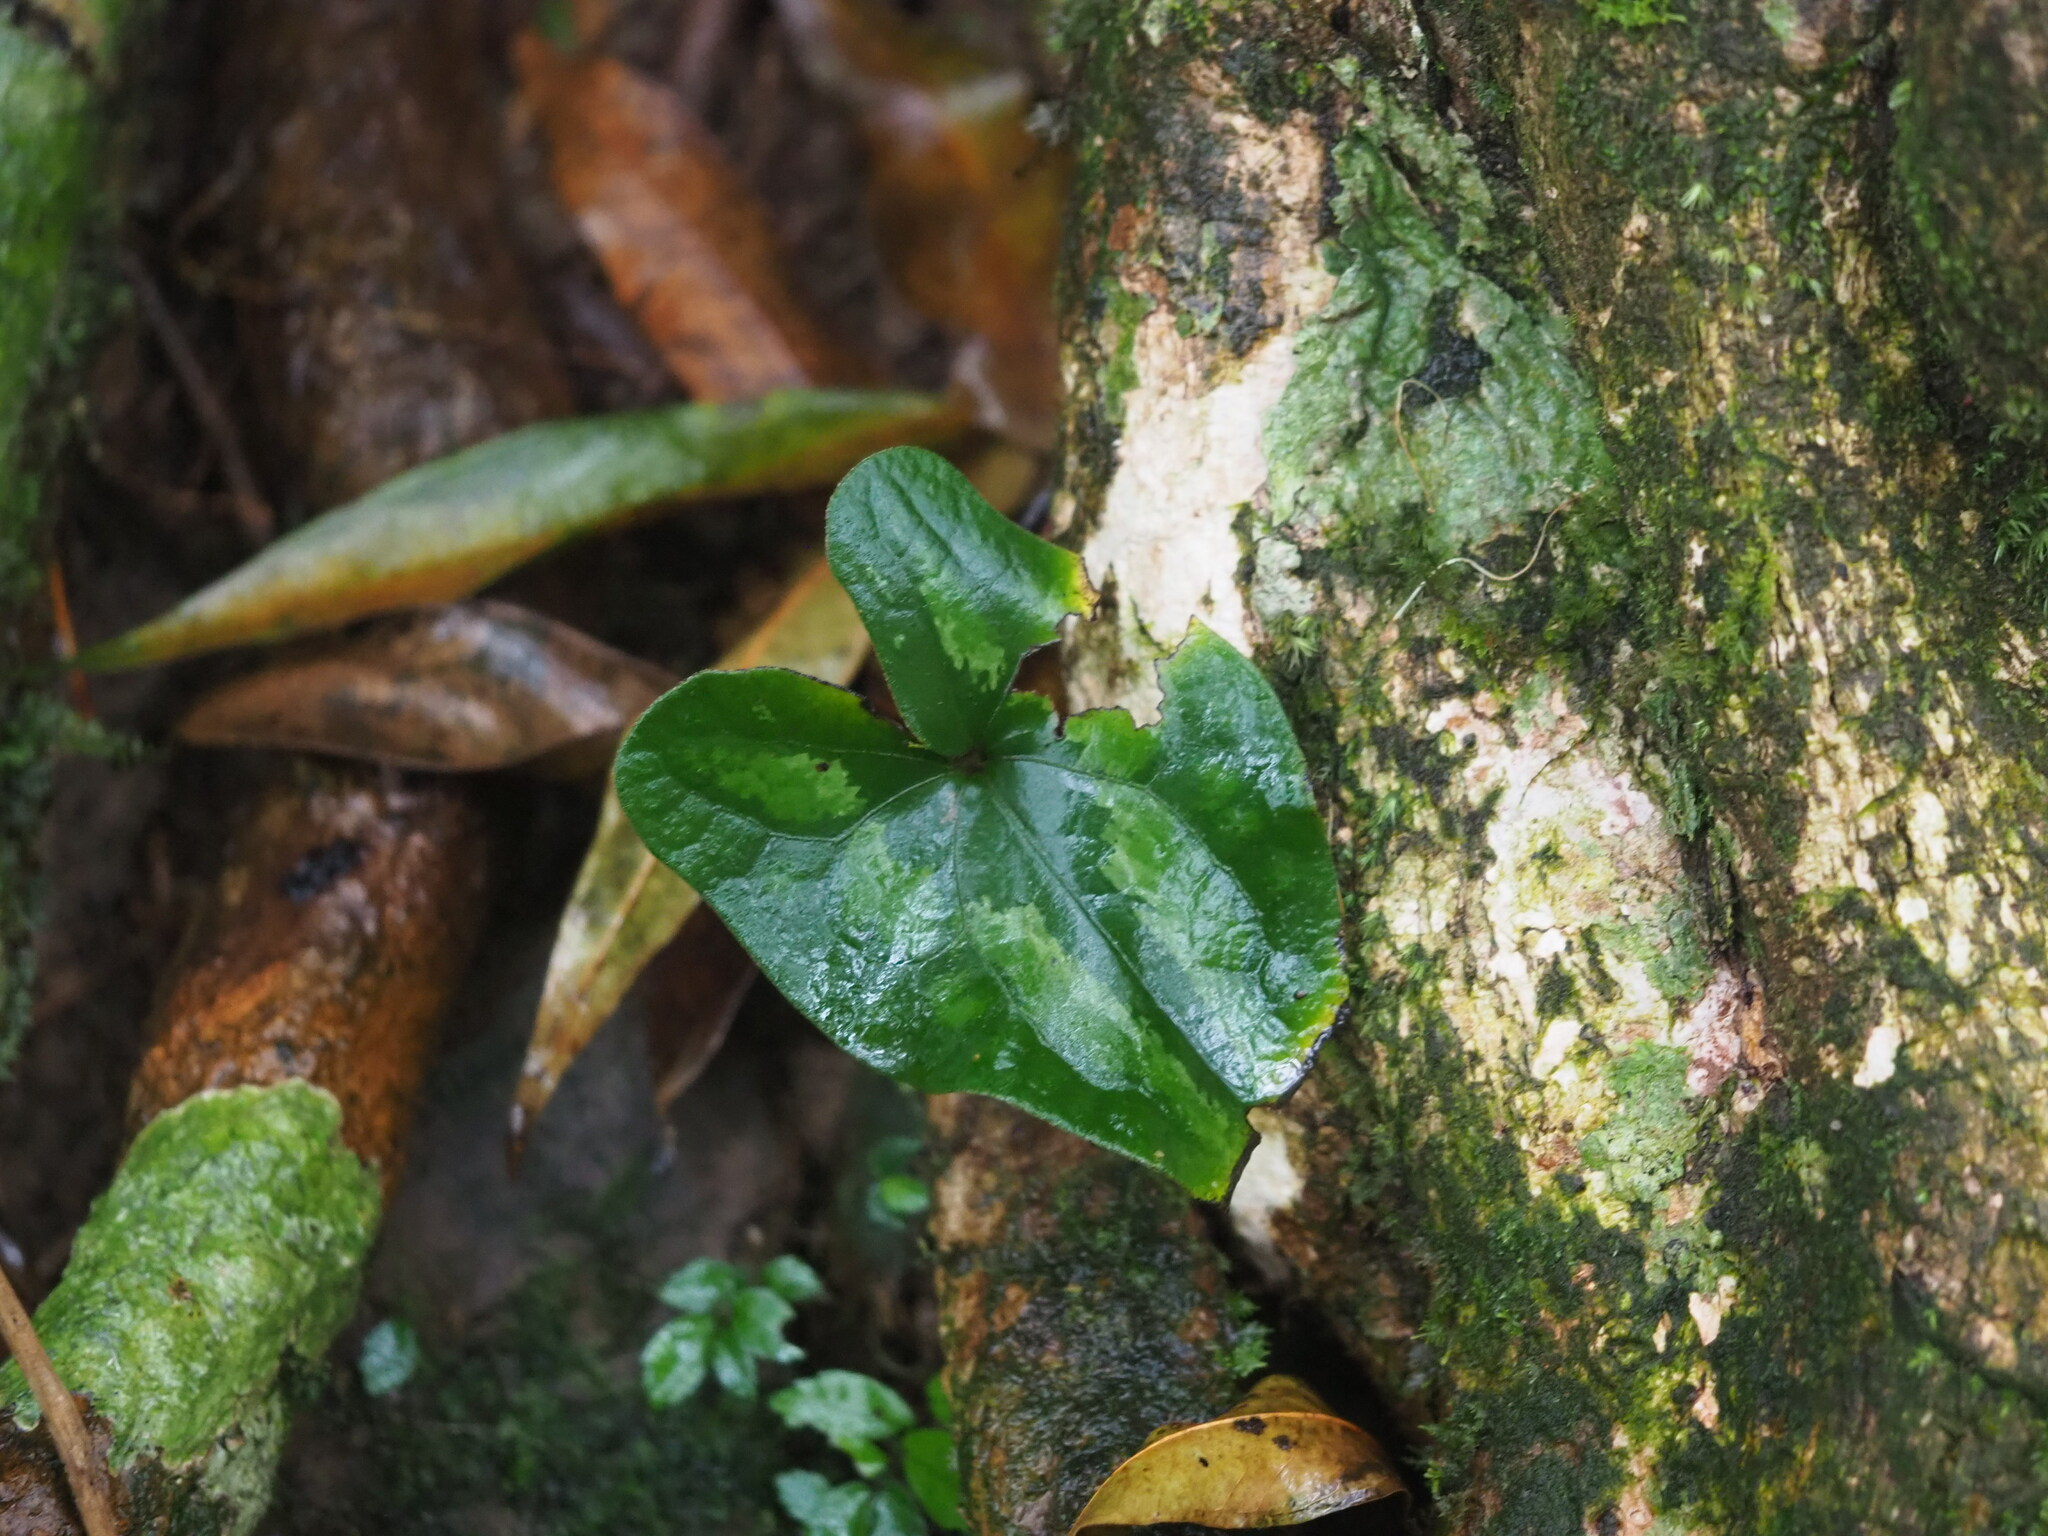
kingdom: Plantae
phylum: Tracheophyta
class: Magnoliopsida
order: Piperales
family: Aristolochiaceae
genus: Asarum
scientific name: Asarum macranthum
